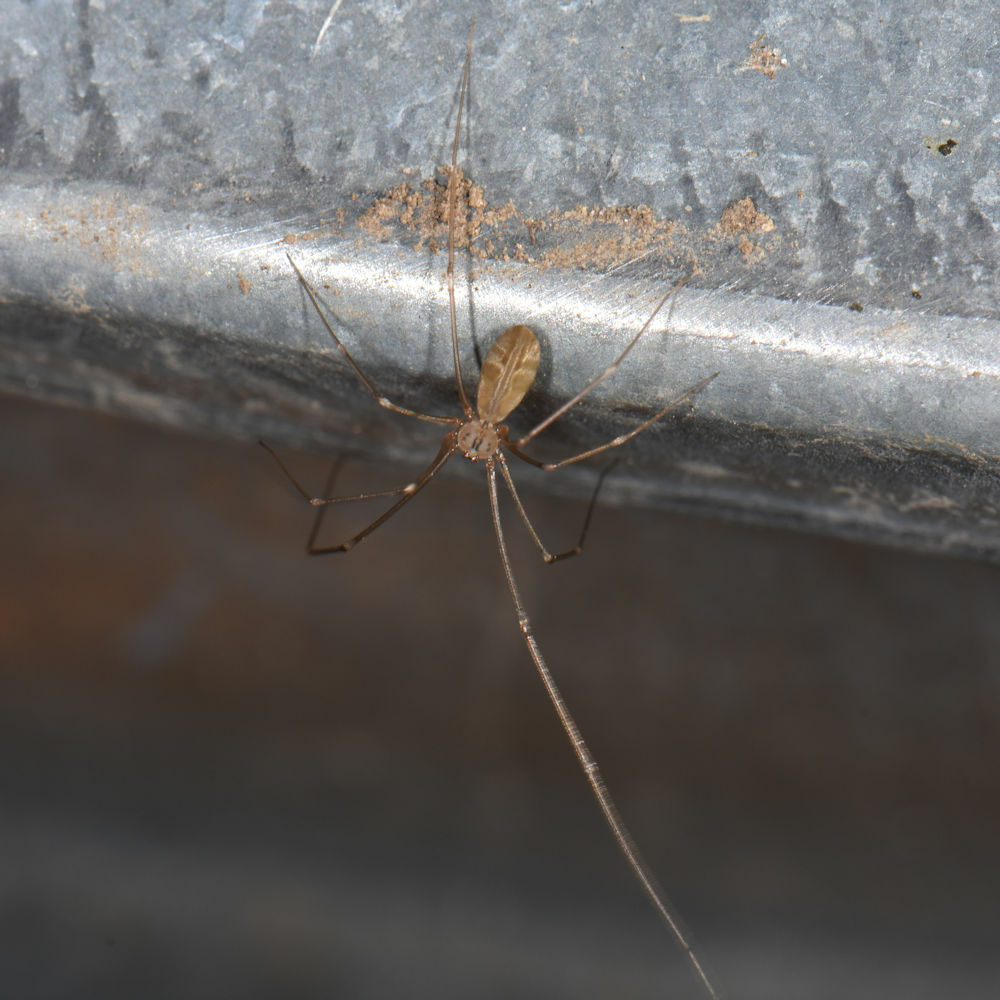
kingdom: Animalia
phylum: Arthropoda
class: Arachnida
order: Araneae
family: Pholcidae
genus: Pholcus
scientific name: Pholcus opilionoides
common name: Daddylongleg spider
